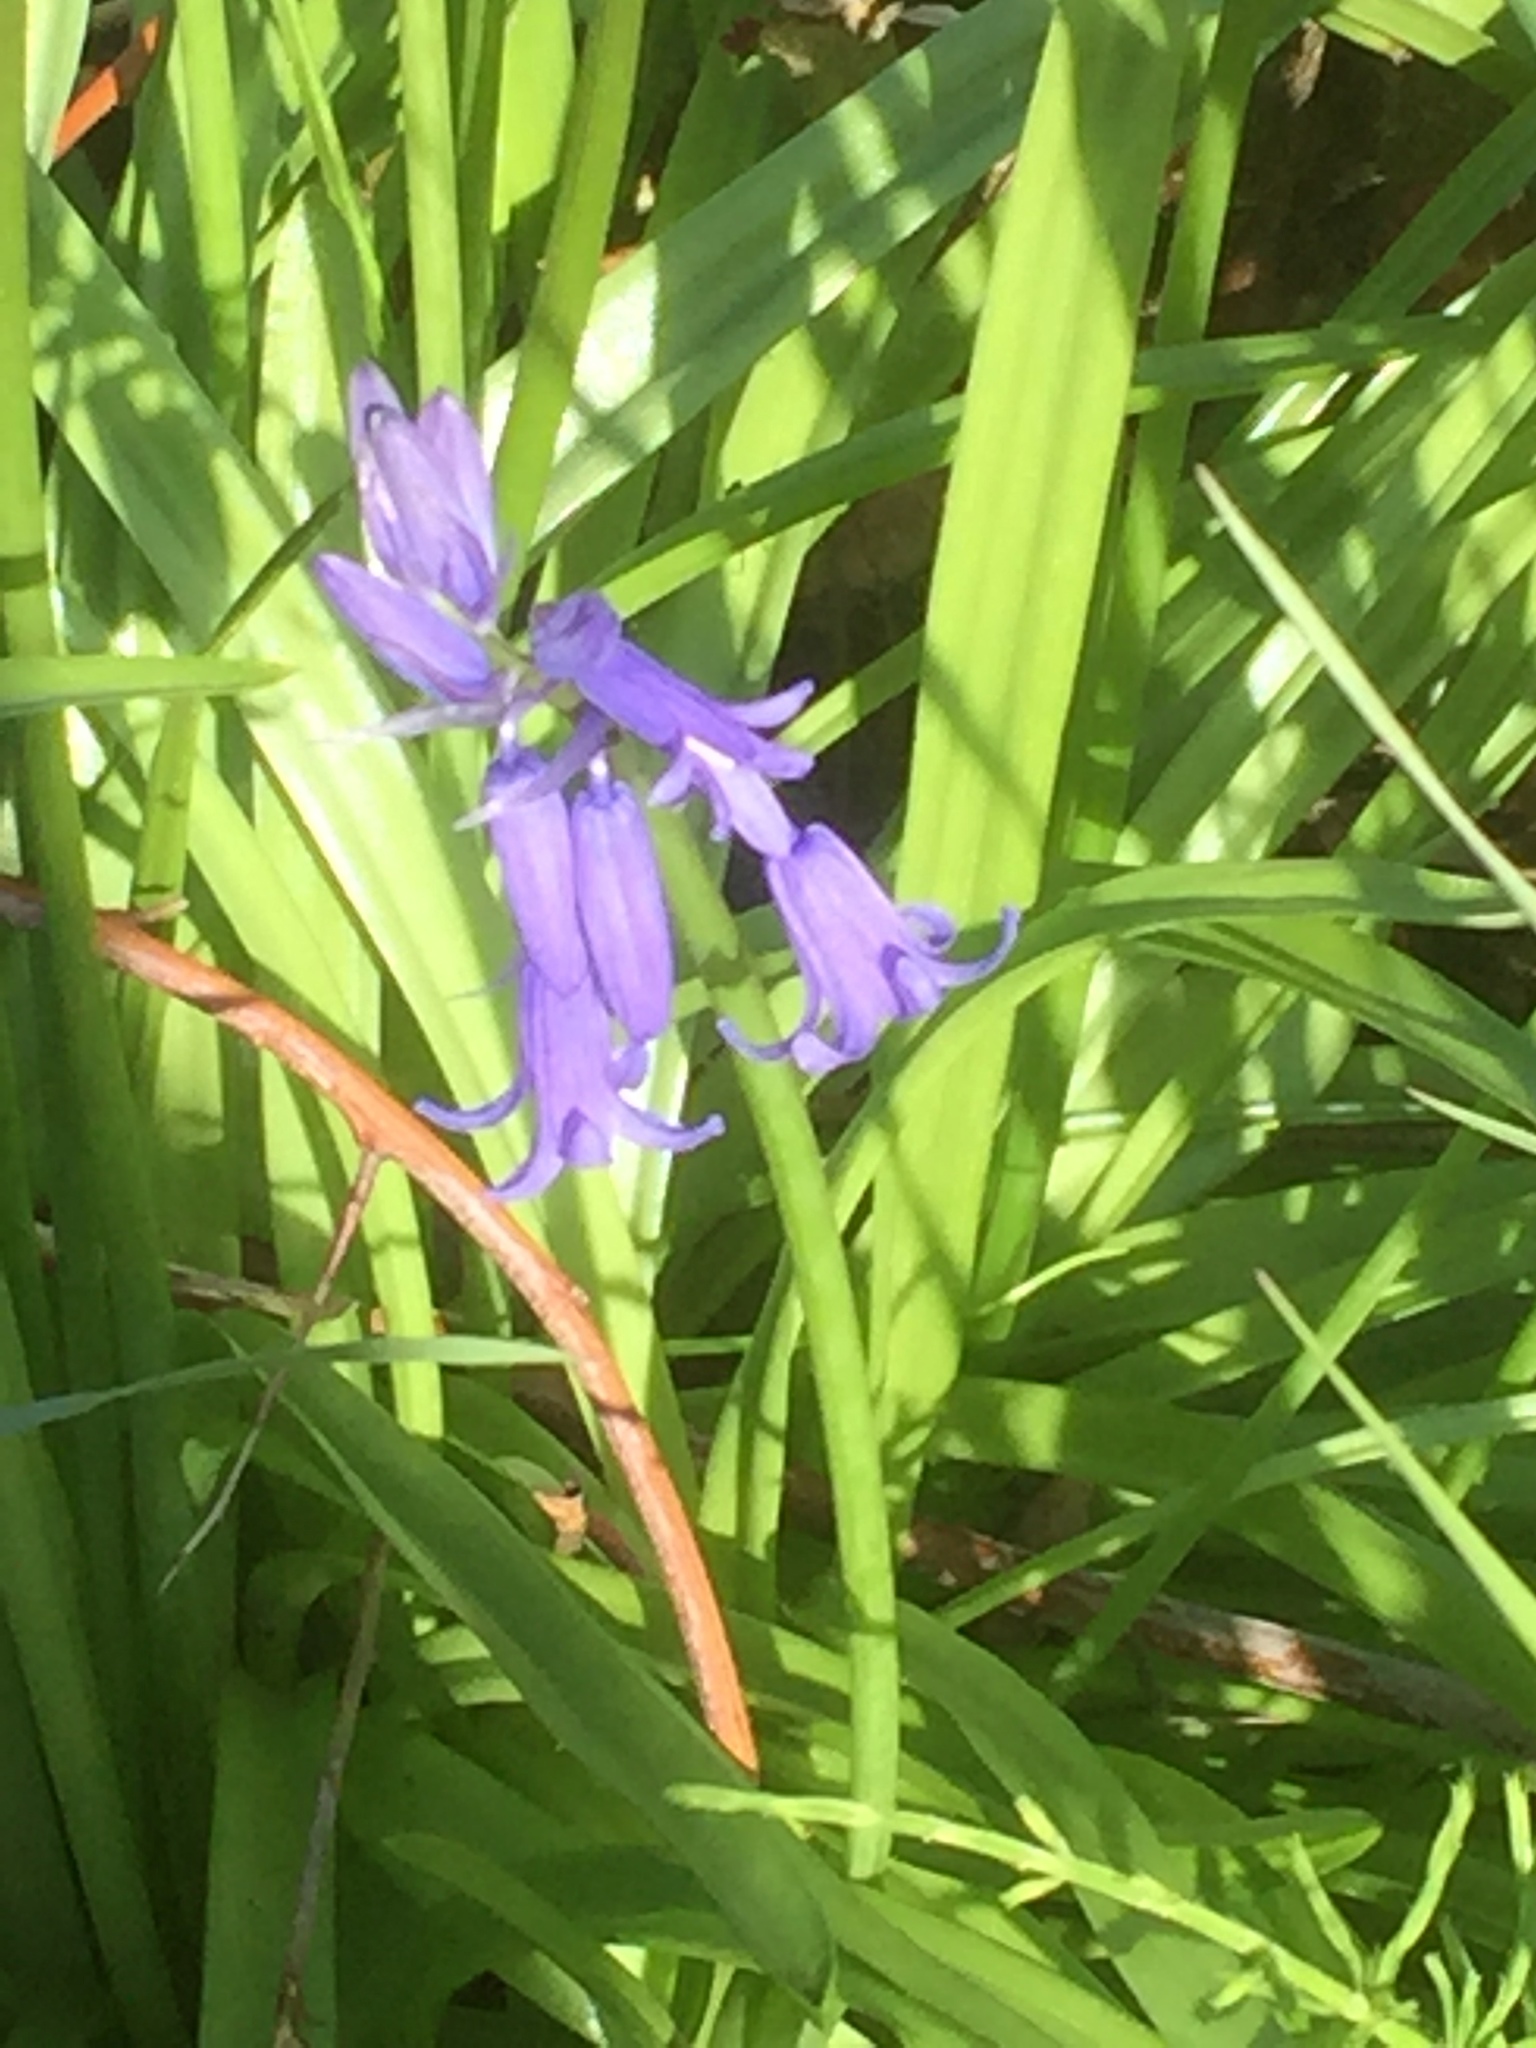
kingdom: Plantae
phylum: Tracheophyta
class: Liliopsida
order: Asparagales
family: Asparagaceae
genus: Hyacinthoides
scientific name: Hyacinthoides non-scripta
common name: Bluebell
